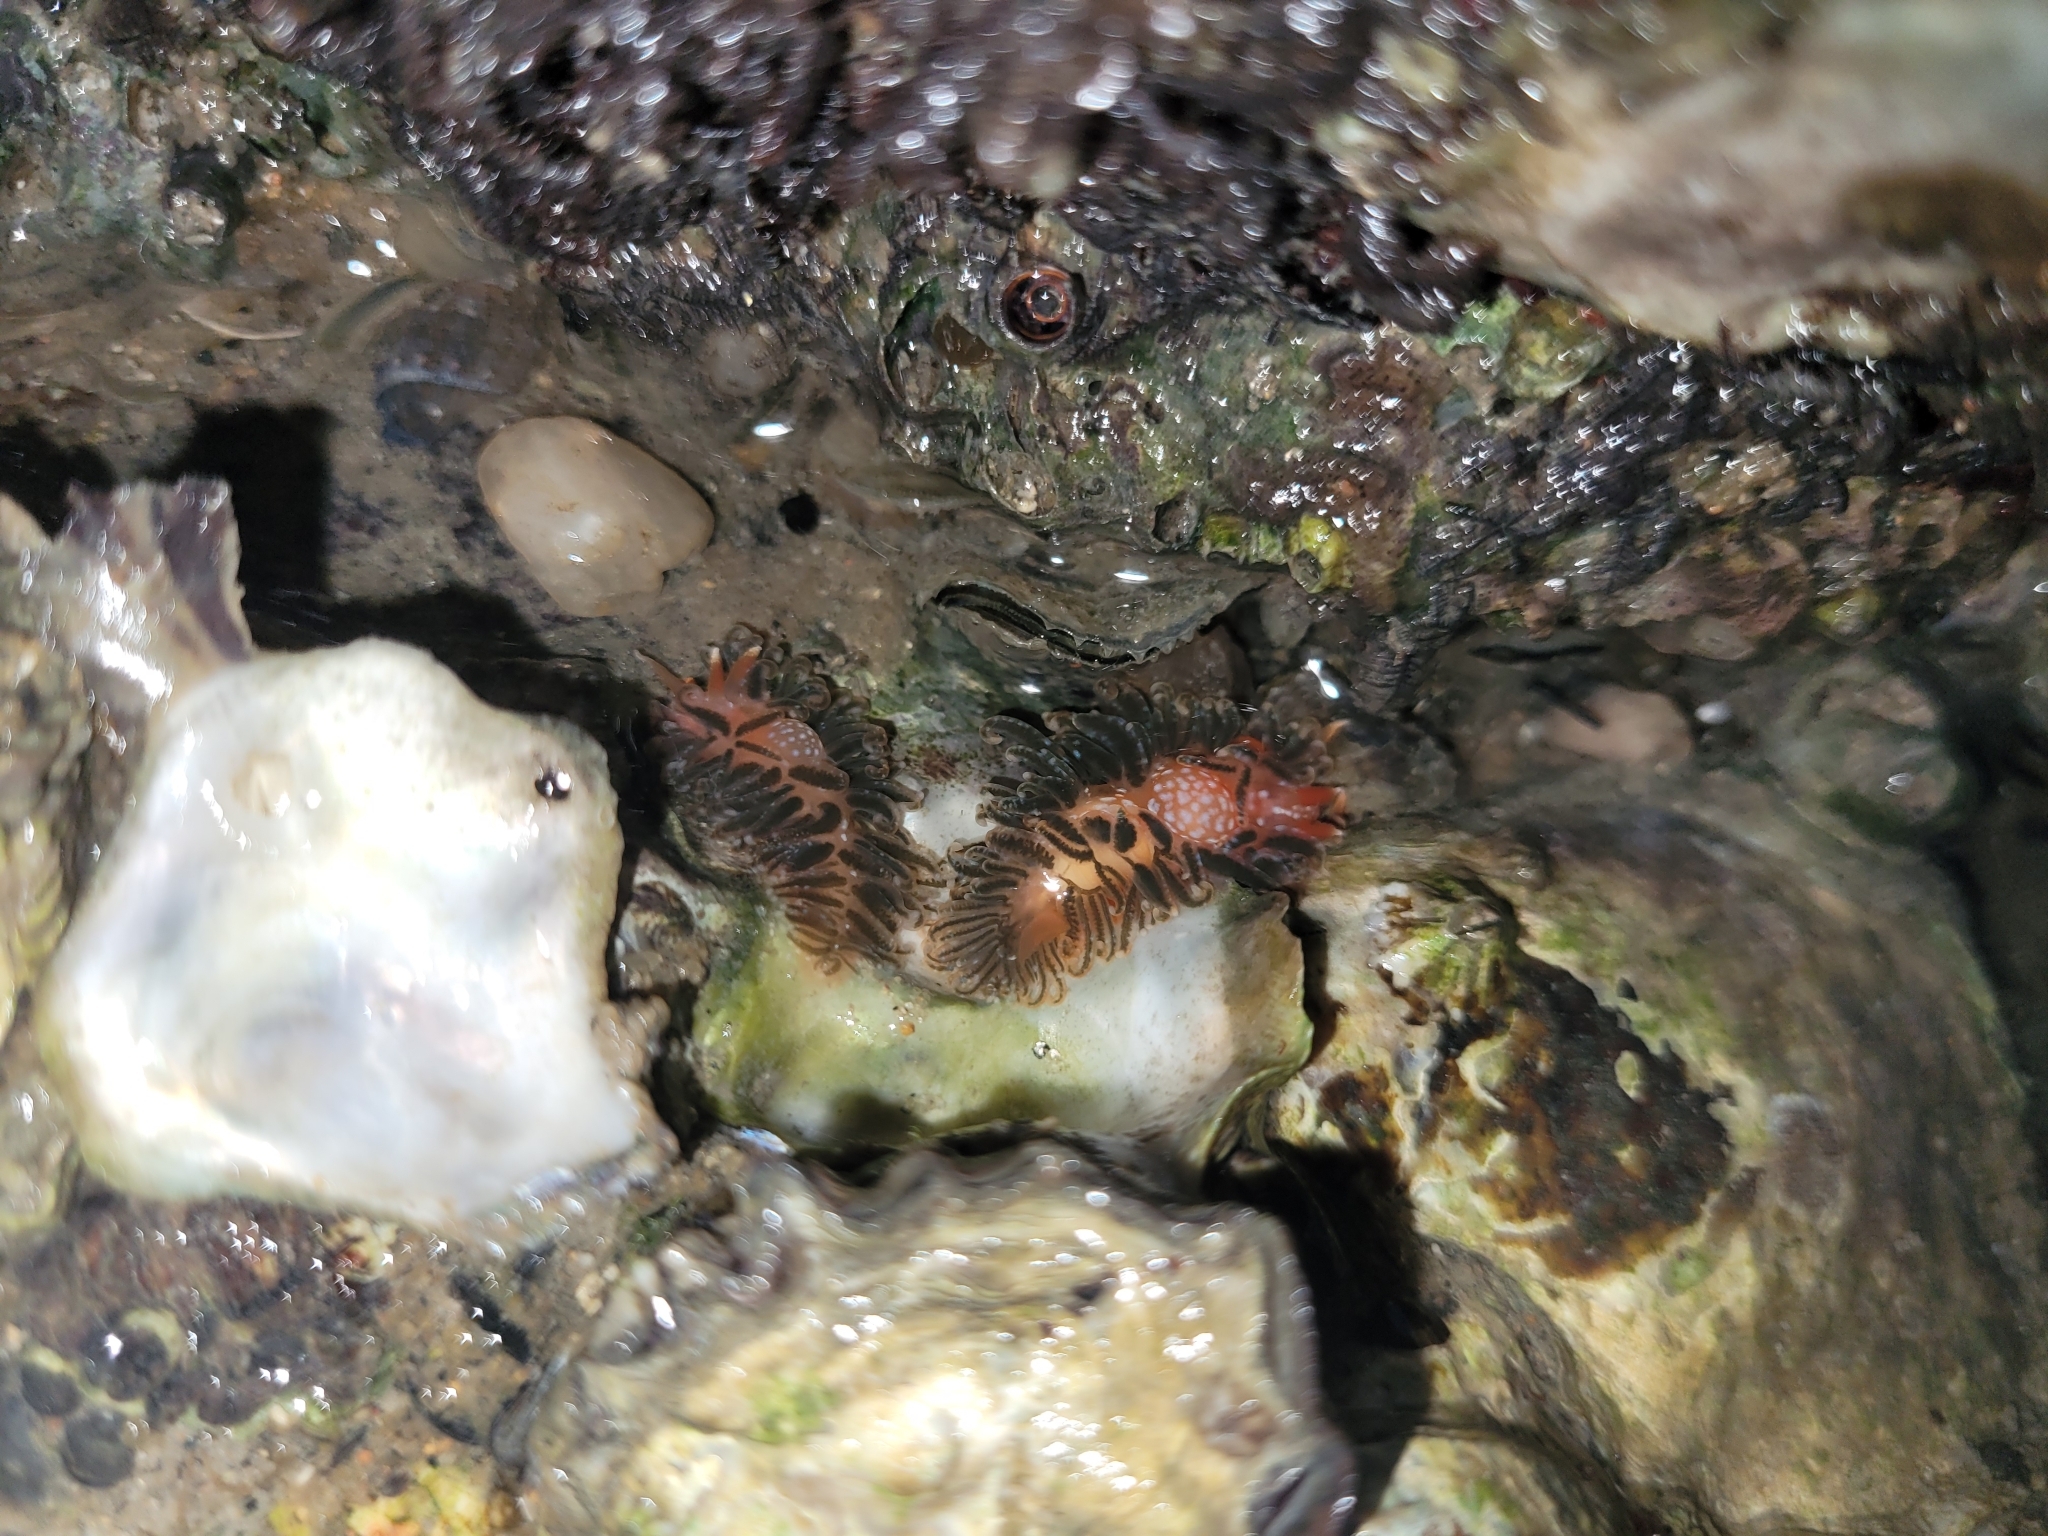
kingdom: Animalia
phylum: Mollusca
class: Gastropoda
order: Nudibranchia
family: Aeolidiidae
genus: Spurilla
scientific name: Spurilla braziliana
